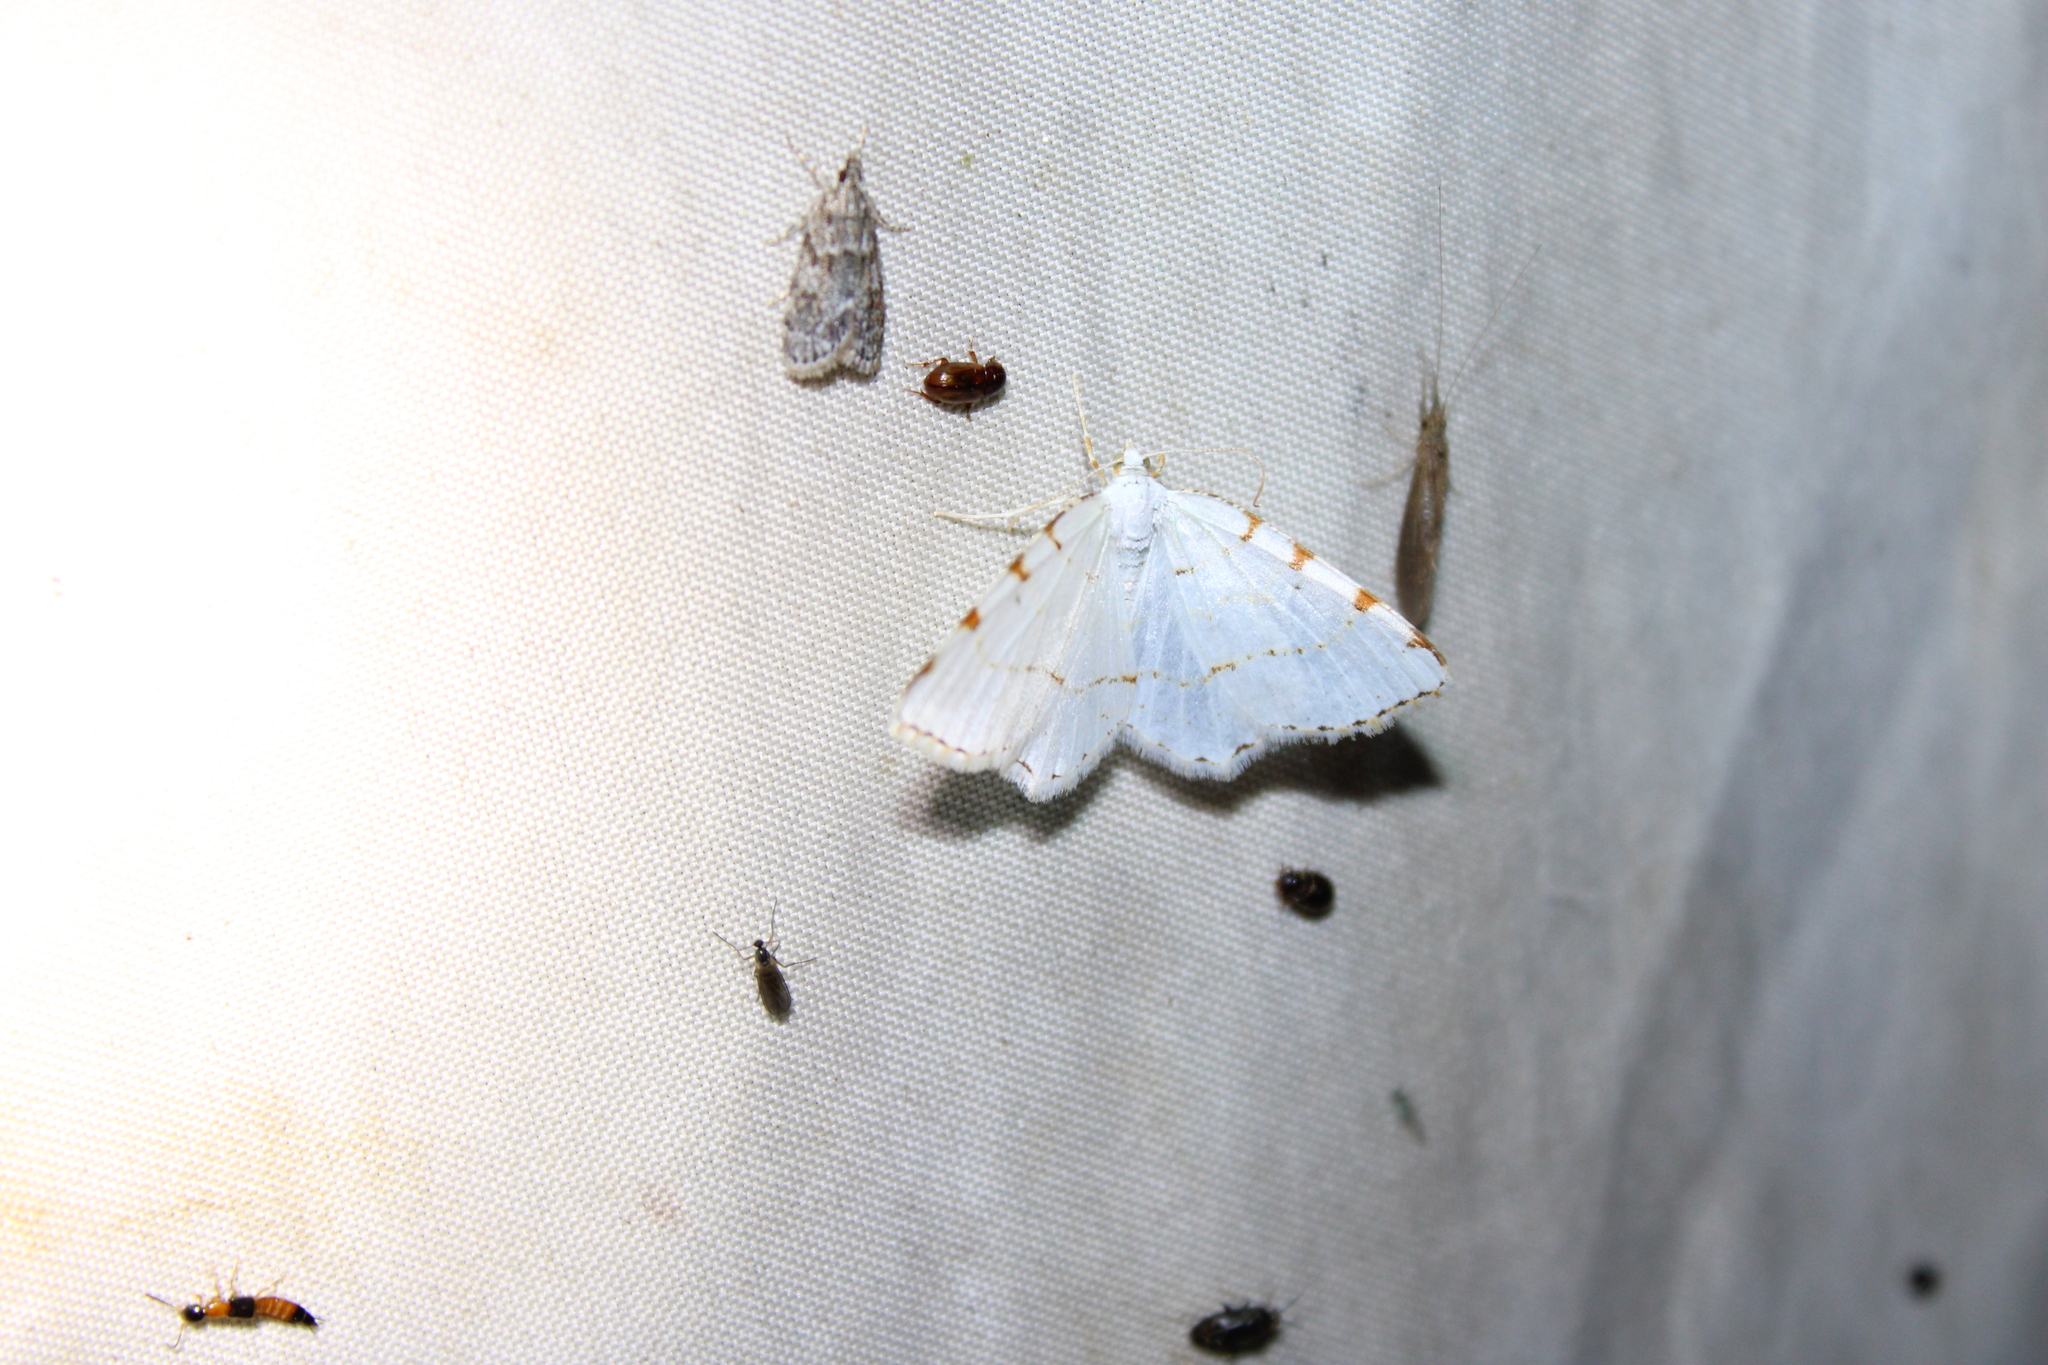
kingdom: Animalia
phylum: Arthropoda
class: Insecta
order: Lepidoptera
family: Geometridae
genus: Macaria
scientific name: Macaria pustularia
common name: Lesser maple spanworm moth
